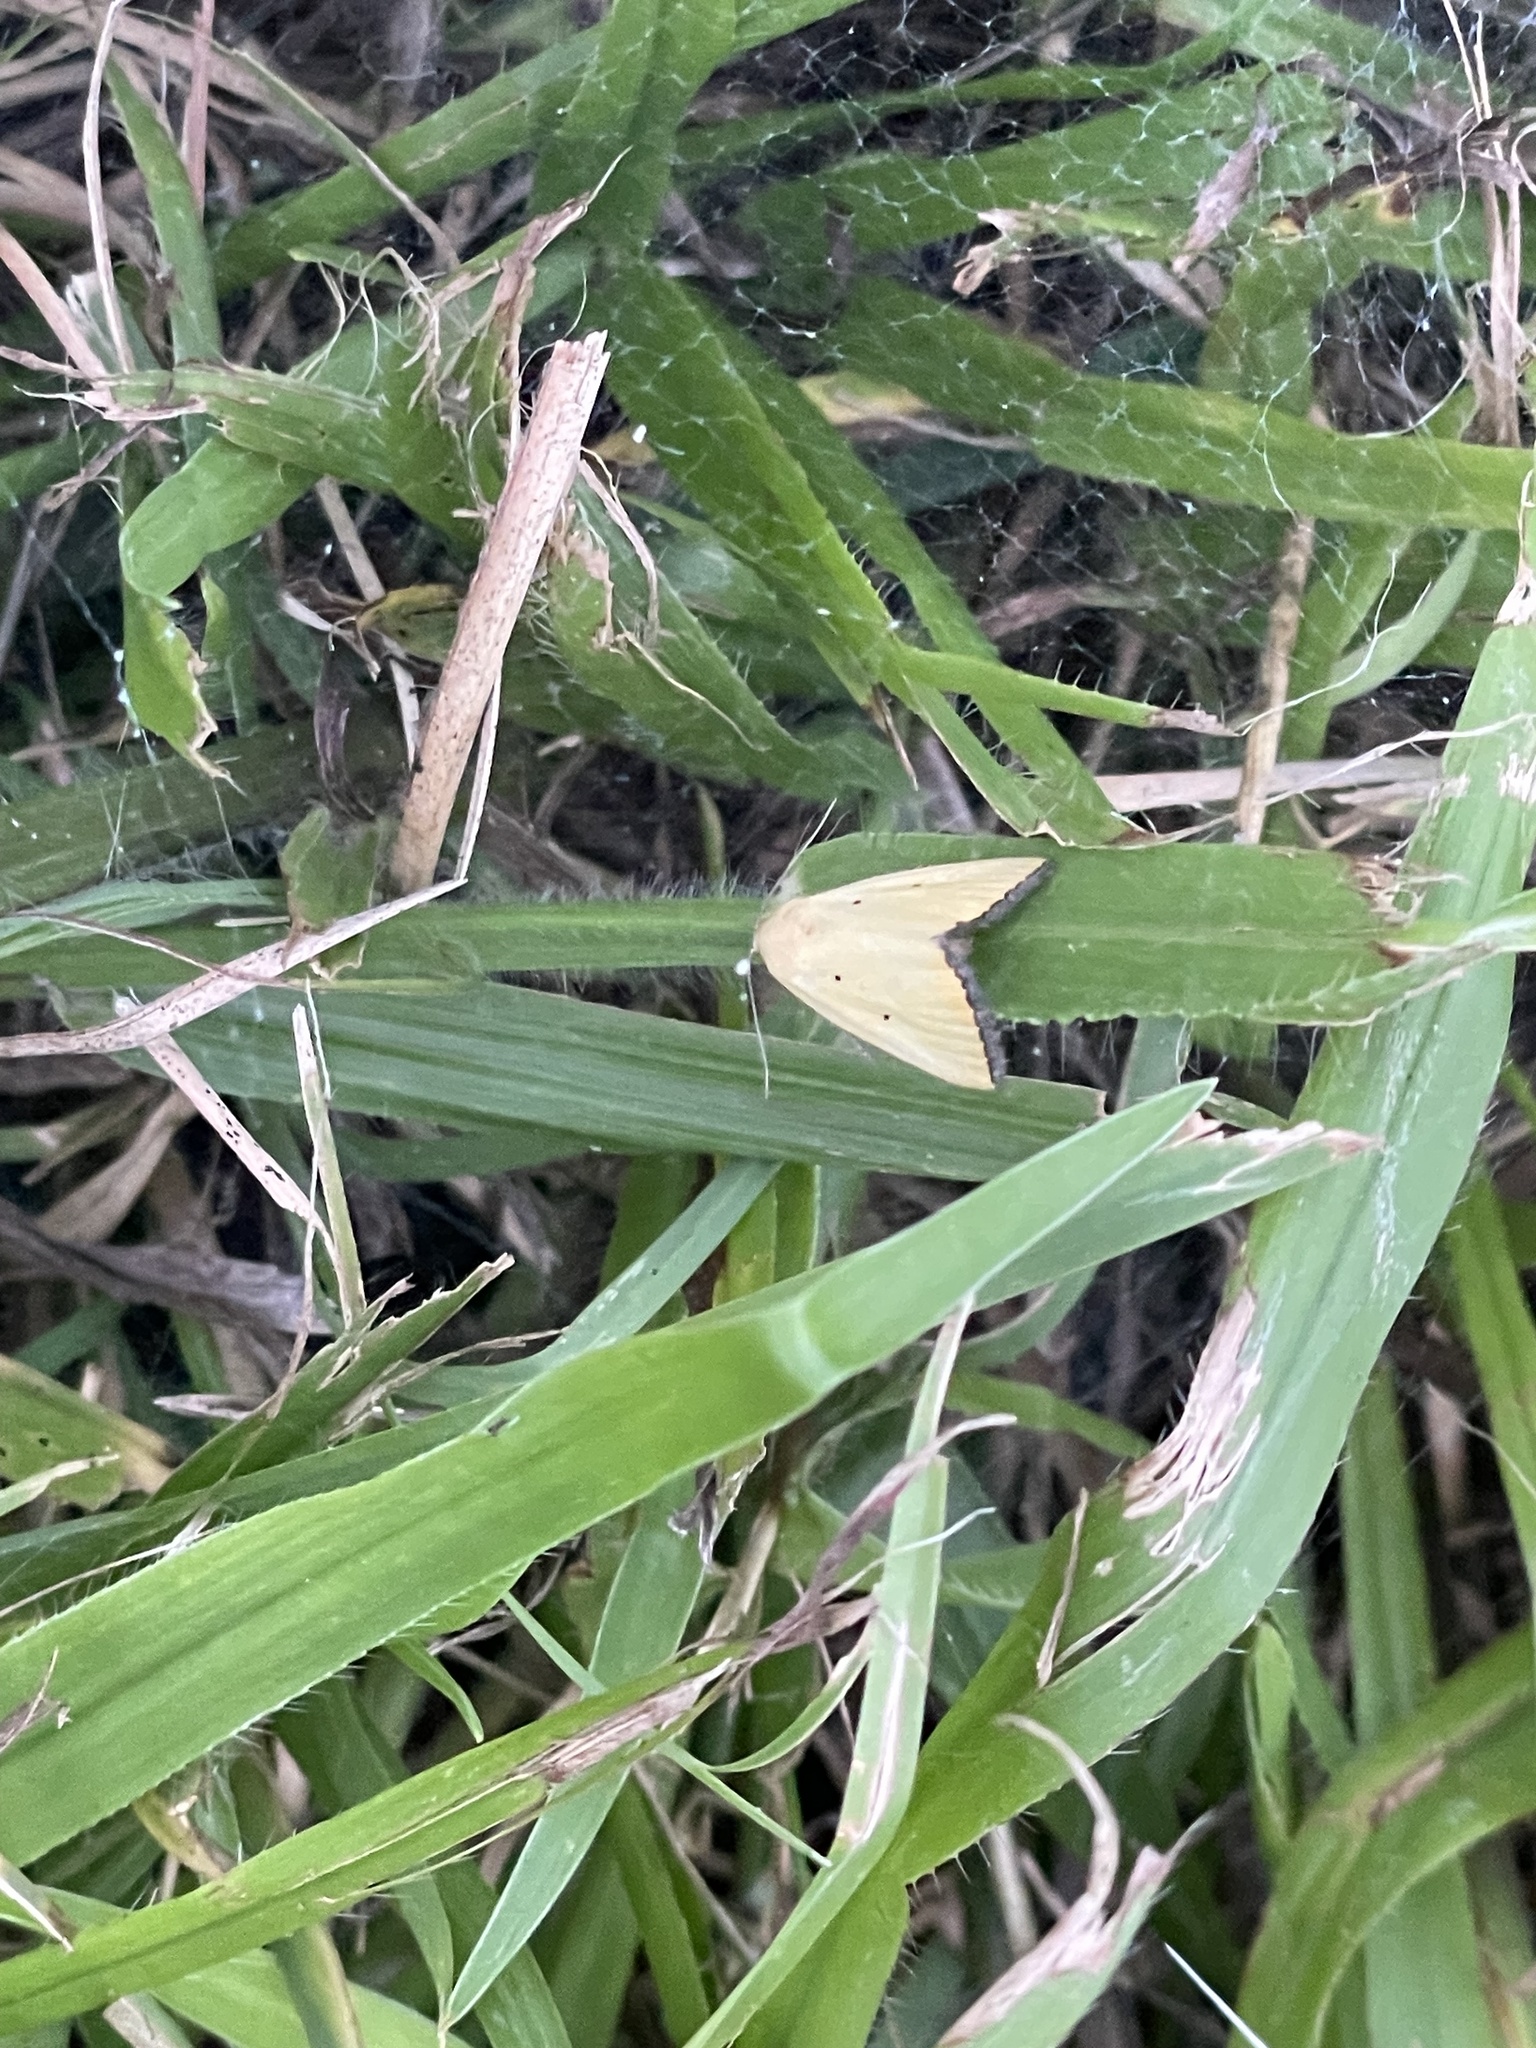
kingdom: Animalia
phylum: Arthropoda
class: Insecta
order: Lepidoptera
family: Noctuidae
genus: Marimatha
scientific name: Marimatha nigrofimbria
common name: Black-bordered lemon moth
